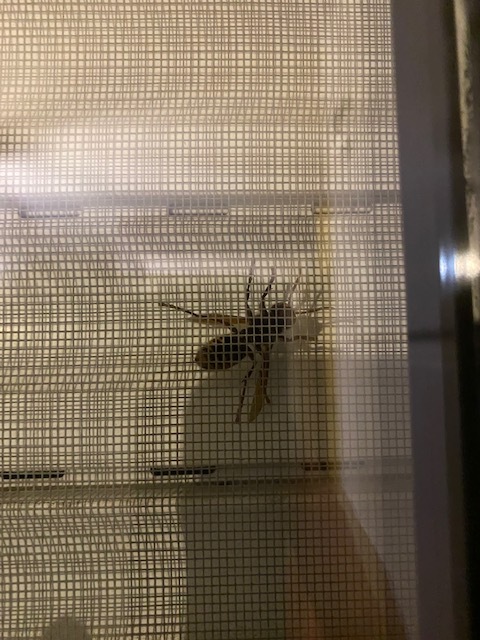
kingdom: Animalia
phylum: Arthropoda
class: Insecta
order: Hymenoptera
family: Vespidae
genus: Vespa
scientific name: Vespa crabro
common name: Hornet
